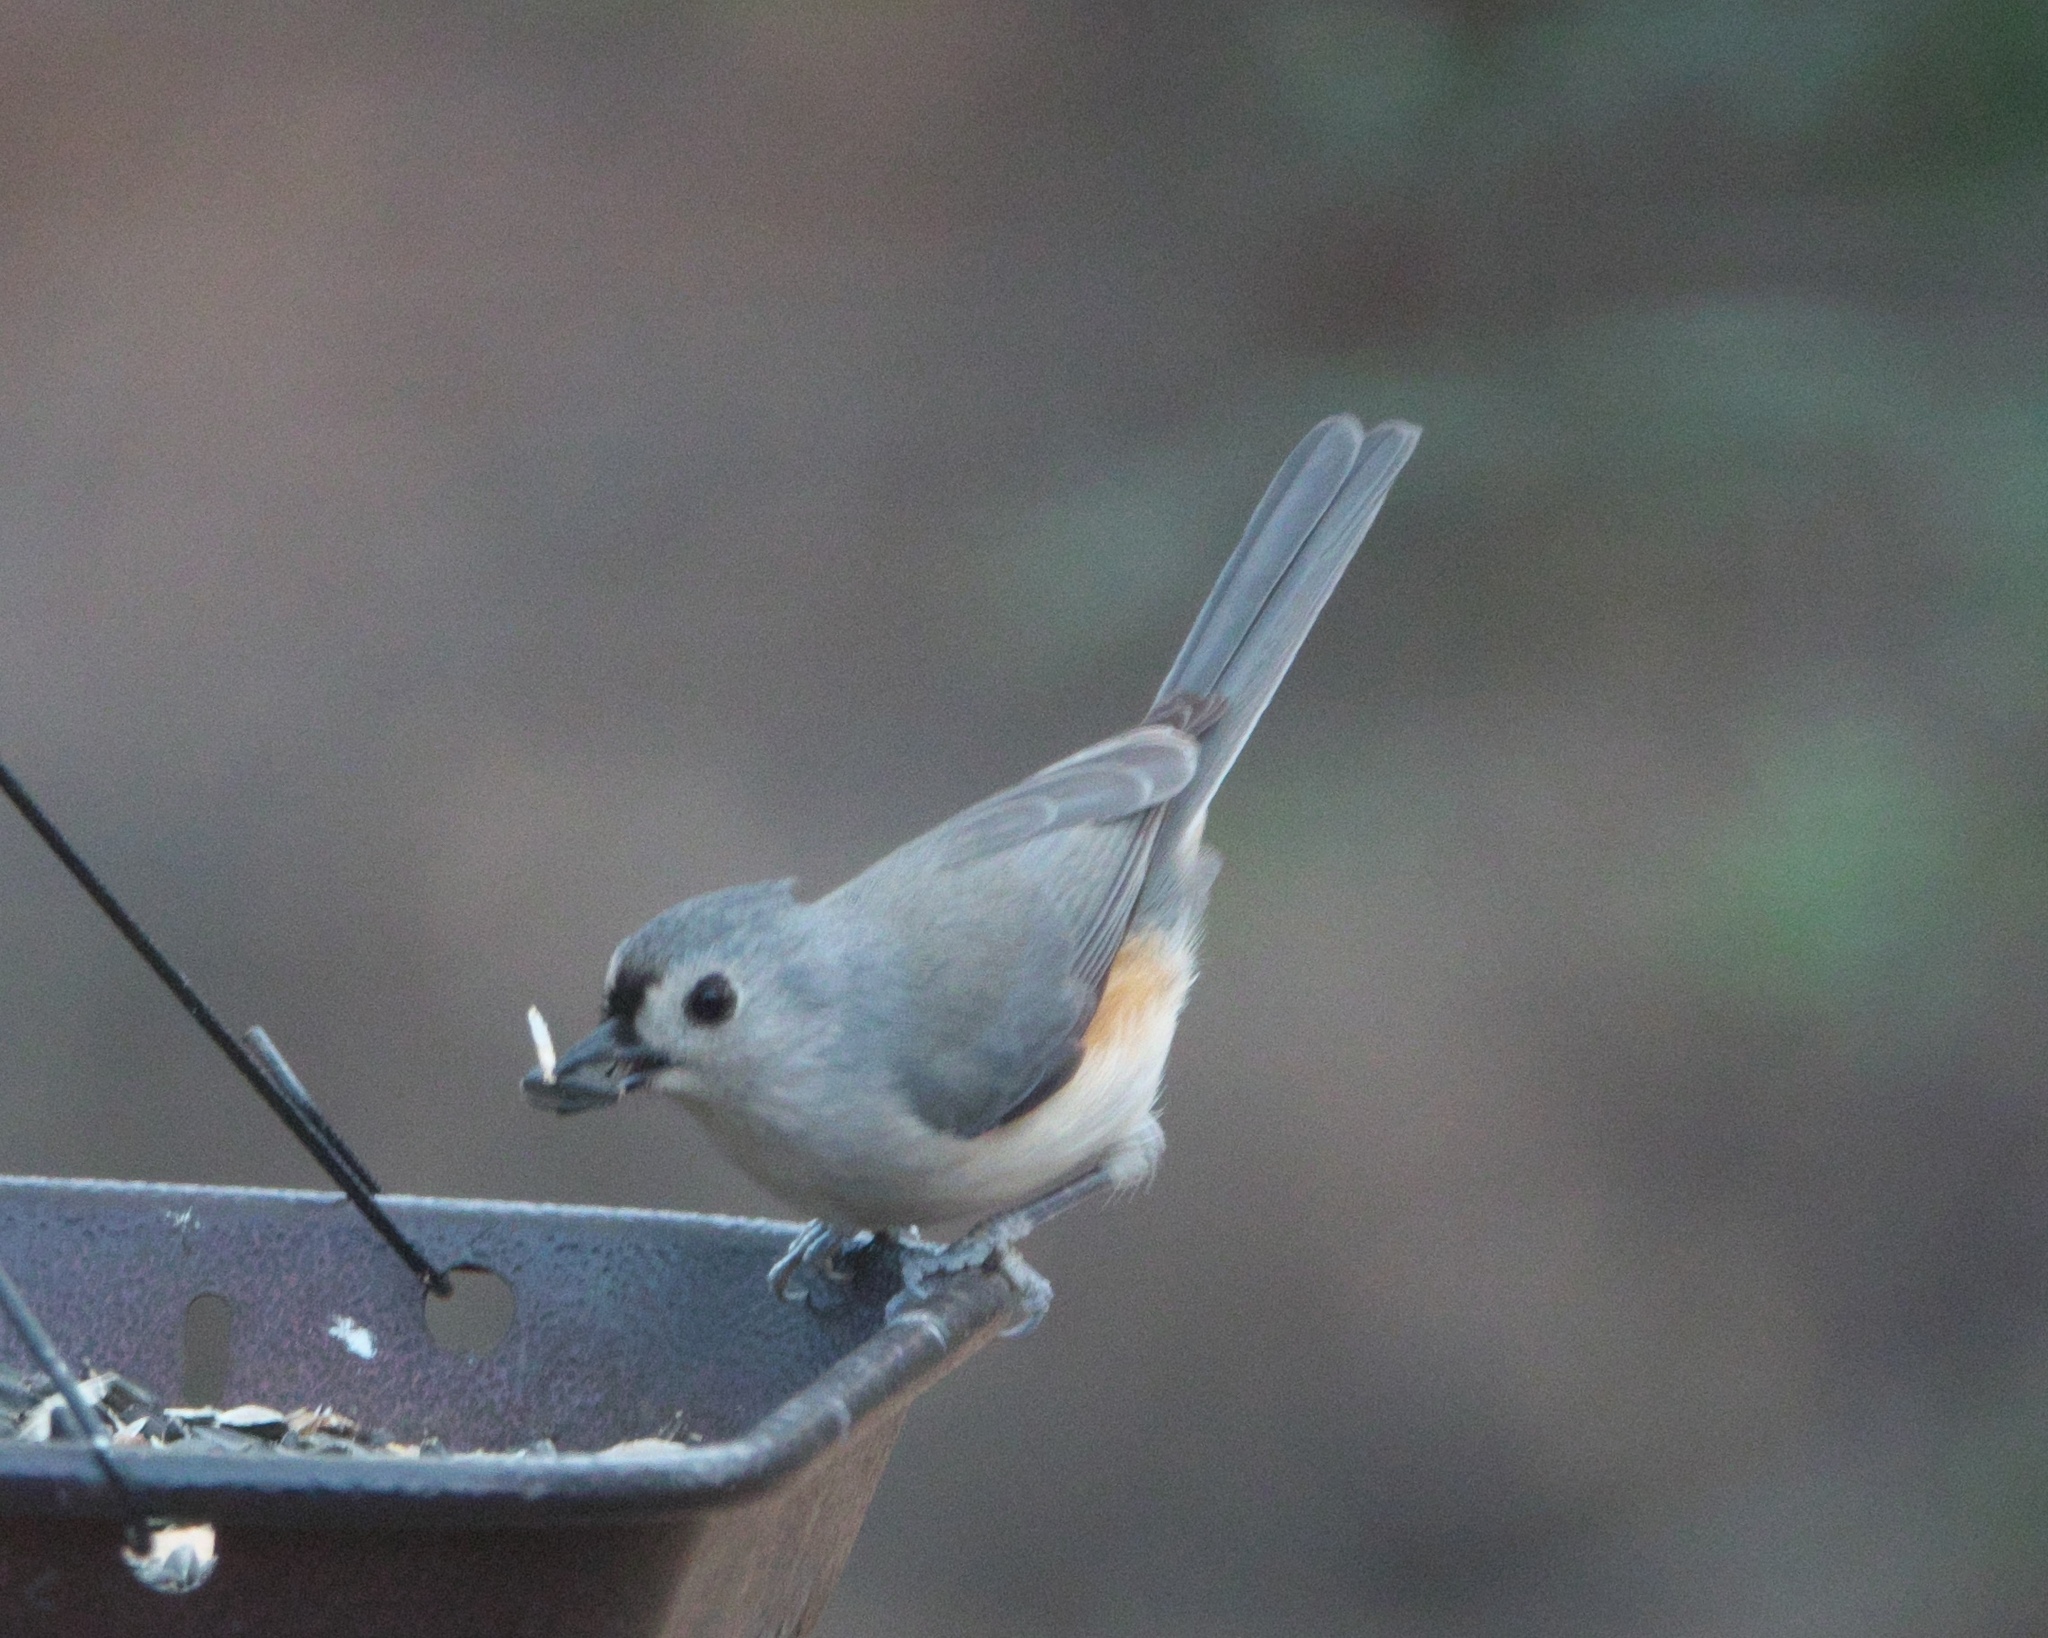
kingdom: Animalia
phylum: Chordata
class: Aves
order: Passeriformes
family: Paridae
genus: Baeolophus
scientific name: Baeolophus bicolor
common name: Tufted titmouse
